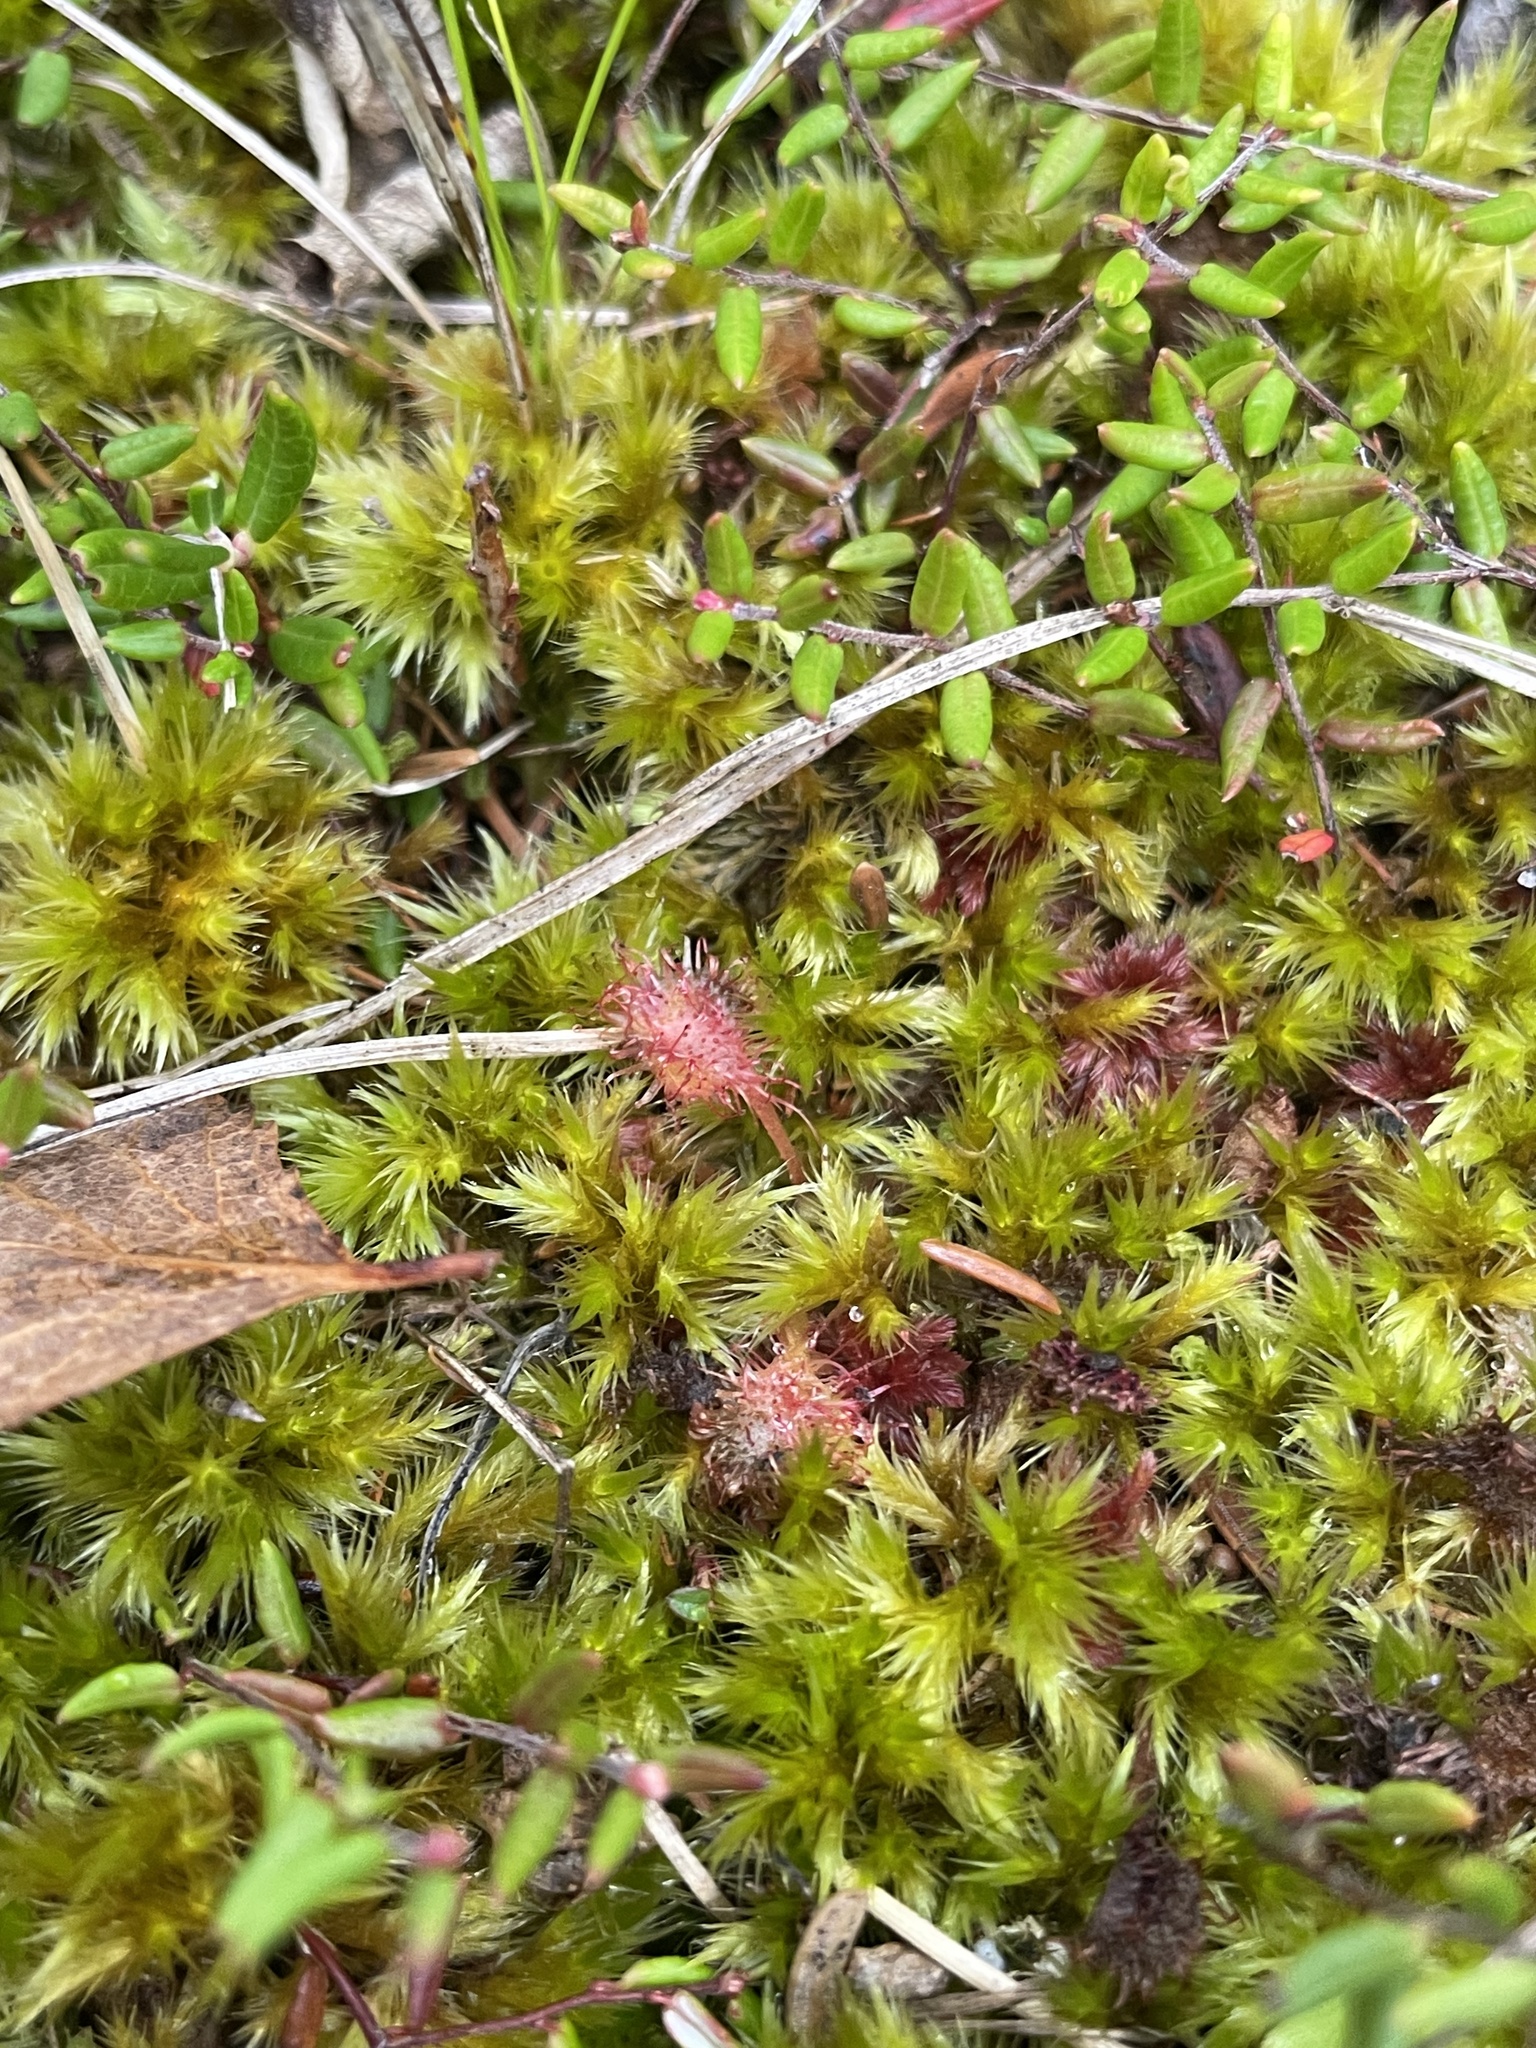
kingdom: Plantae
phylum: Tracheophyta
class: Magnoliopsida
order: Caryophyllales
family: Droseraceae
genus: Drosera
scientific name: Drosera rotundifolia
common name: Round-leaved sundew
